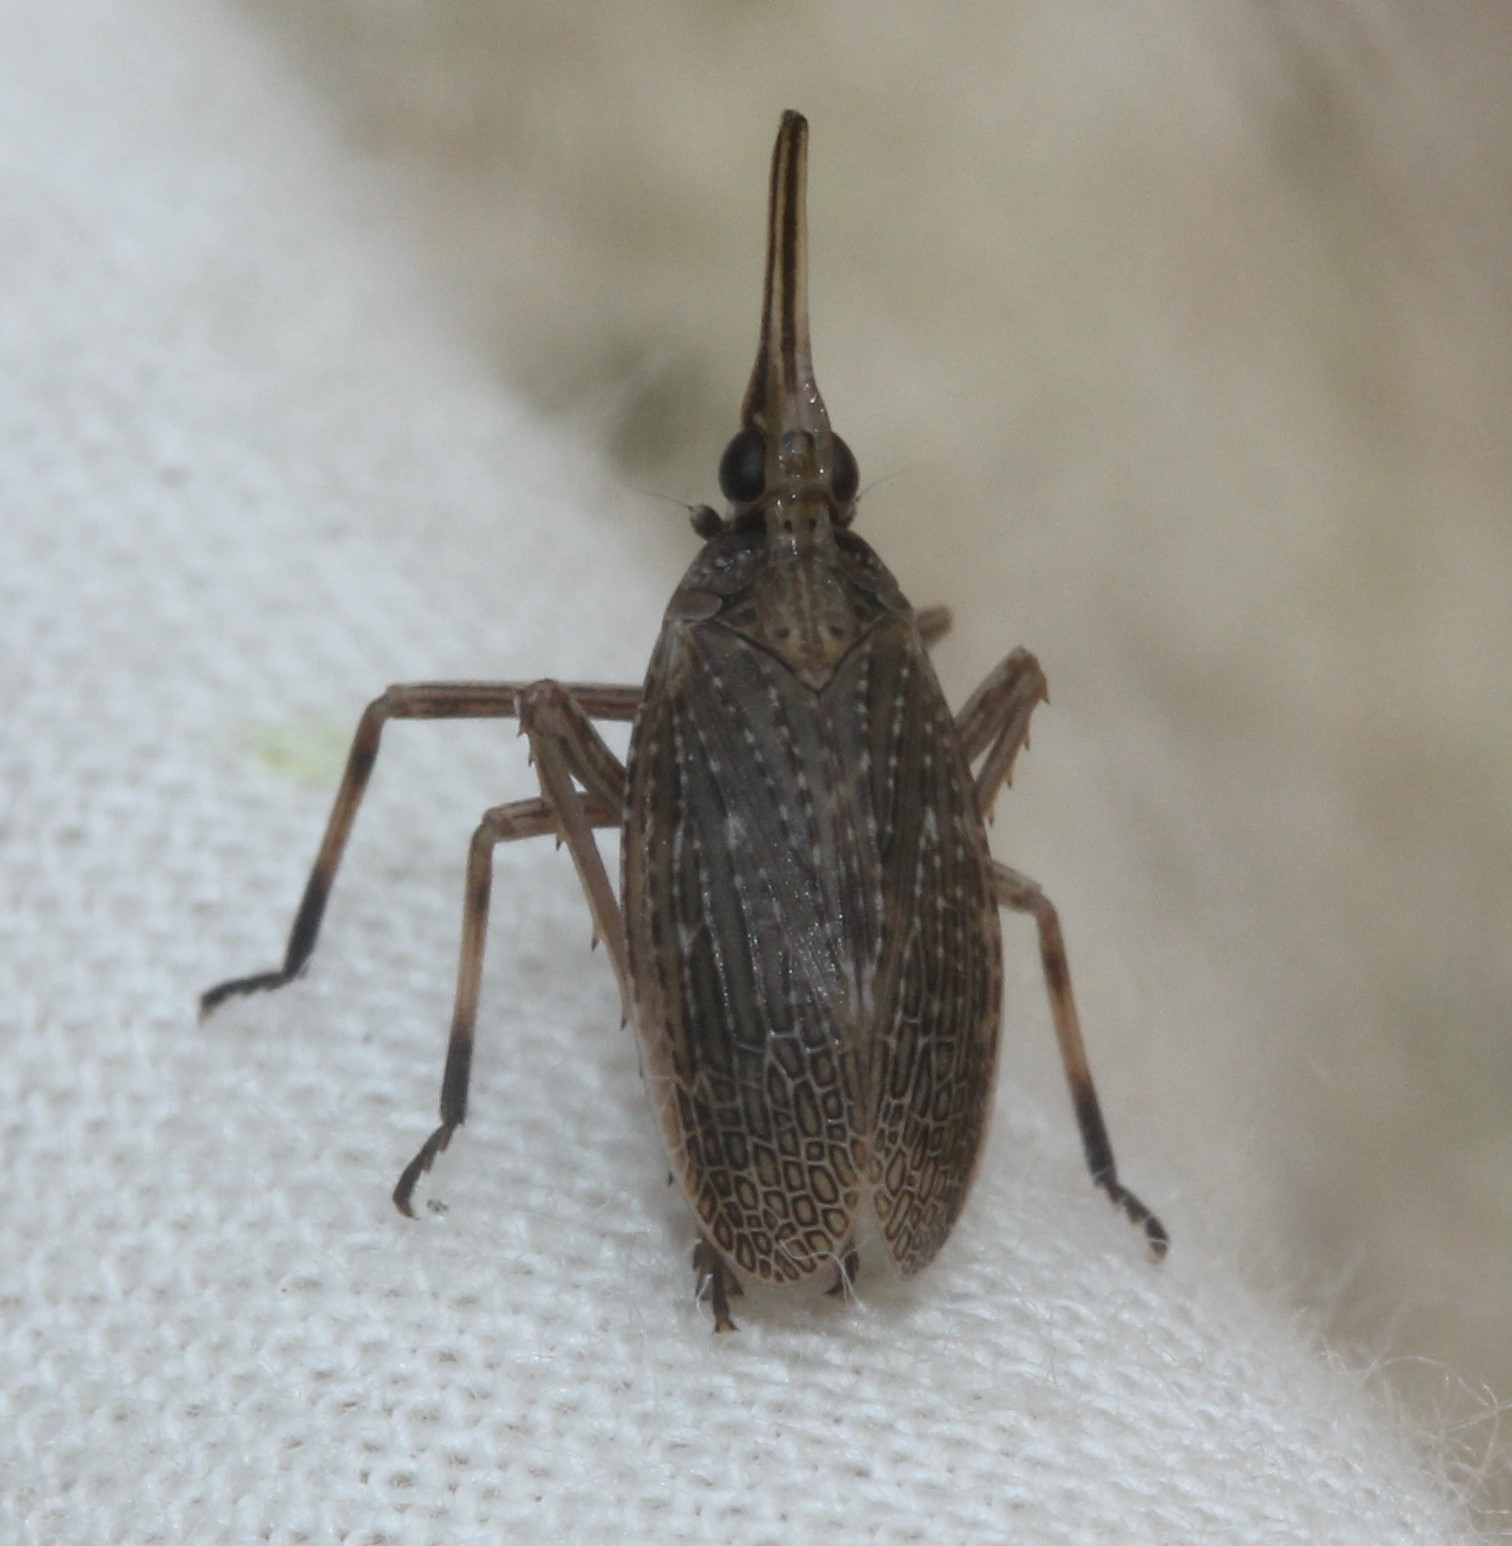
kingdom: Animalia
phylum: Arthropoda
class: Insecta
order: Hemiptera
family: Dictyopharidae
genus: Scolops
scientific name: Scolops sulcipes
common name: Partridge planthopper
